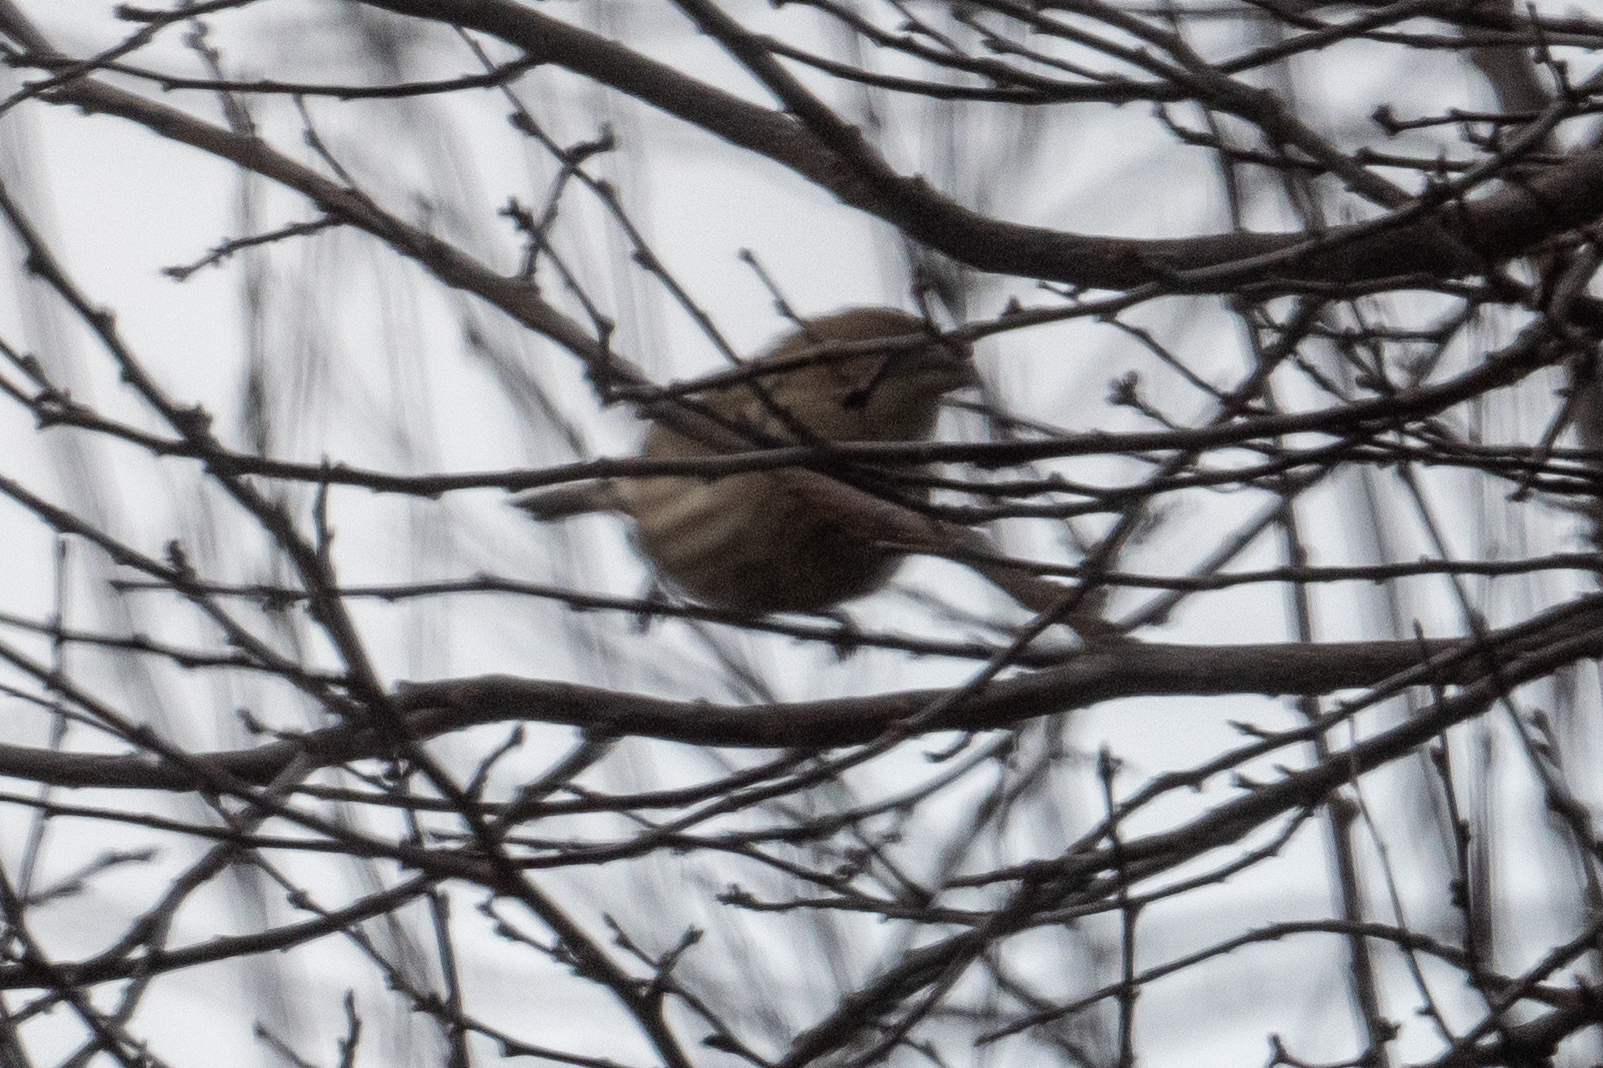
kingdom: Animalia
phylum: Chordata
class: Aves
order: Passeriformes
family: Fringillidae
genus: Haemorhous
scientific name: Haemorhous mexicanus
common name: House finch
